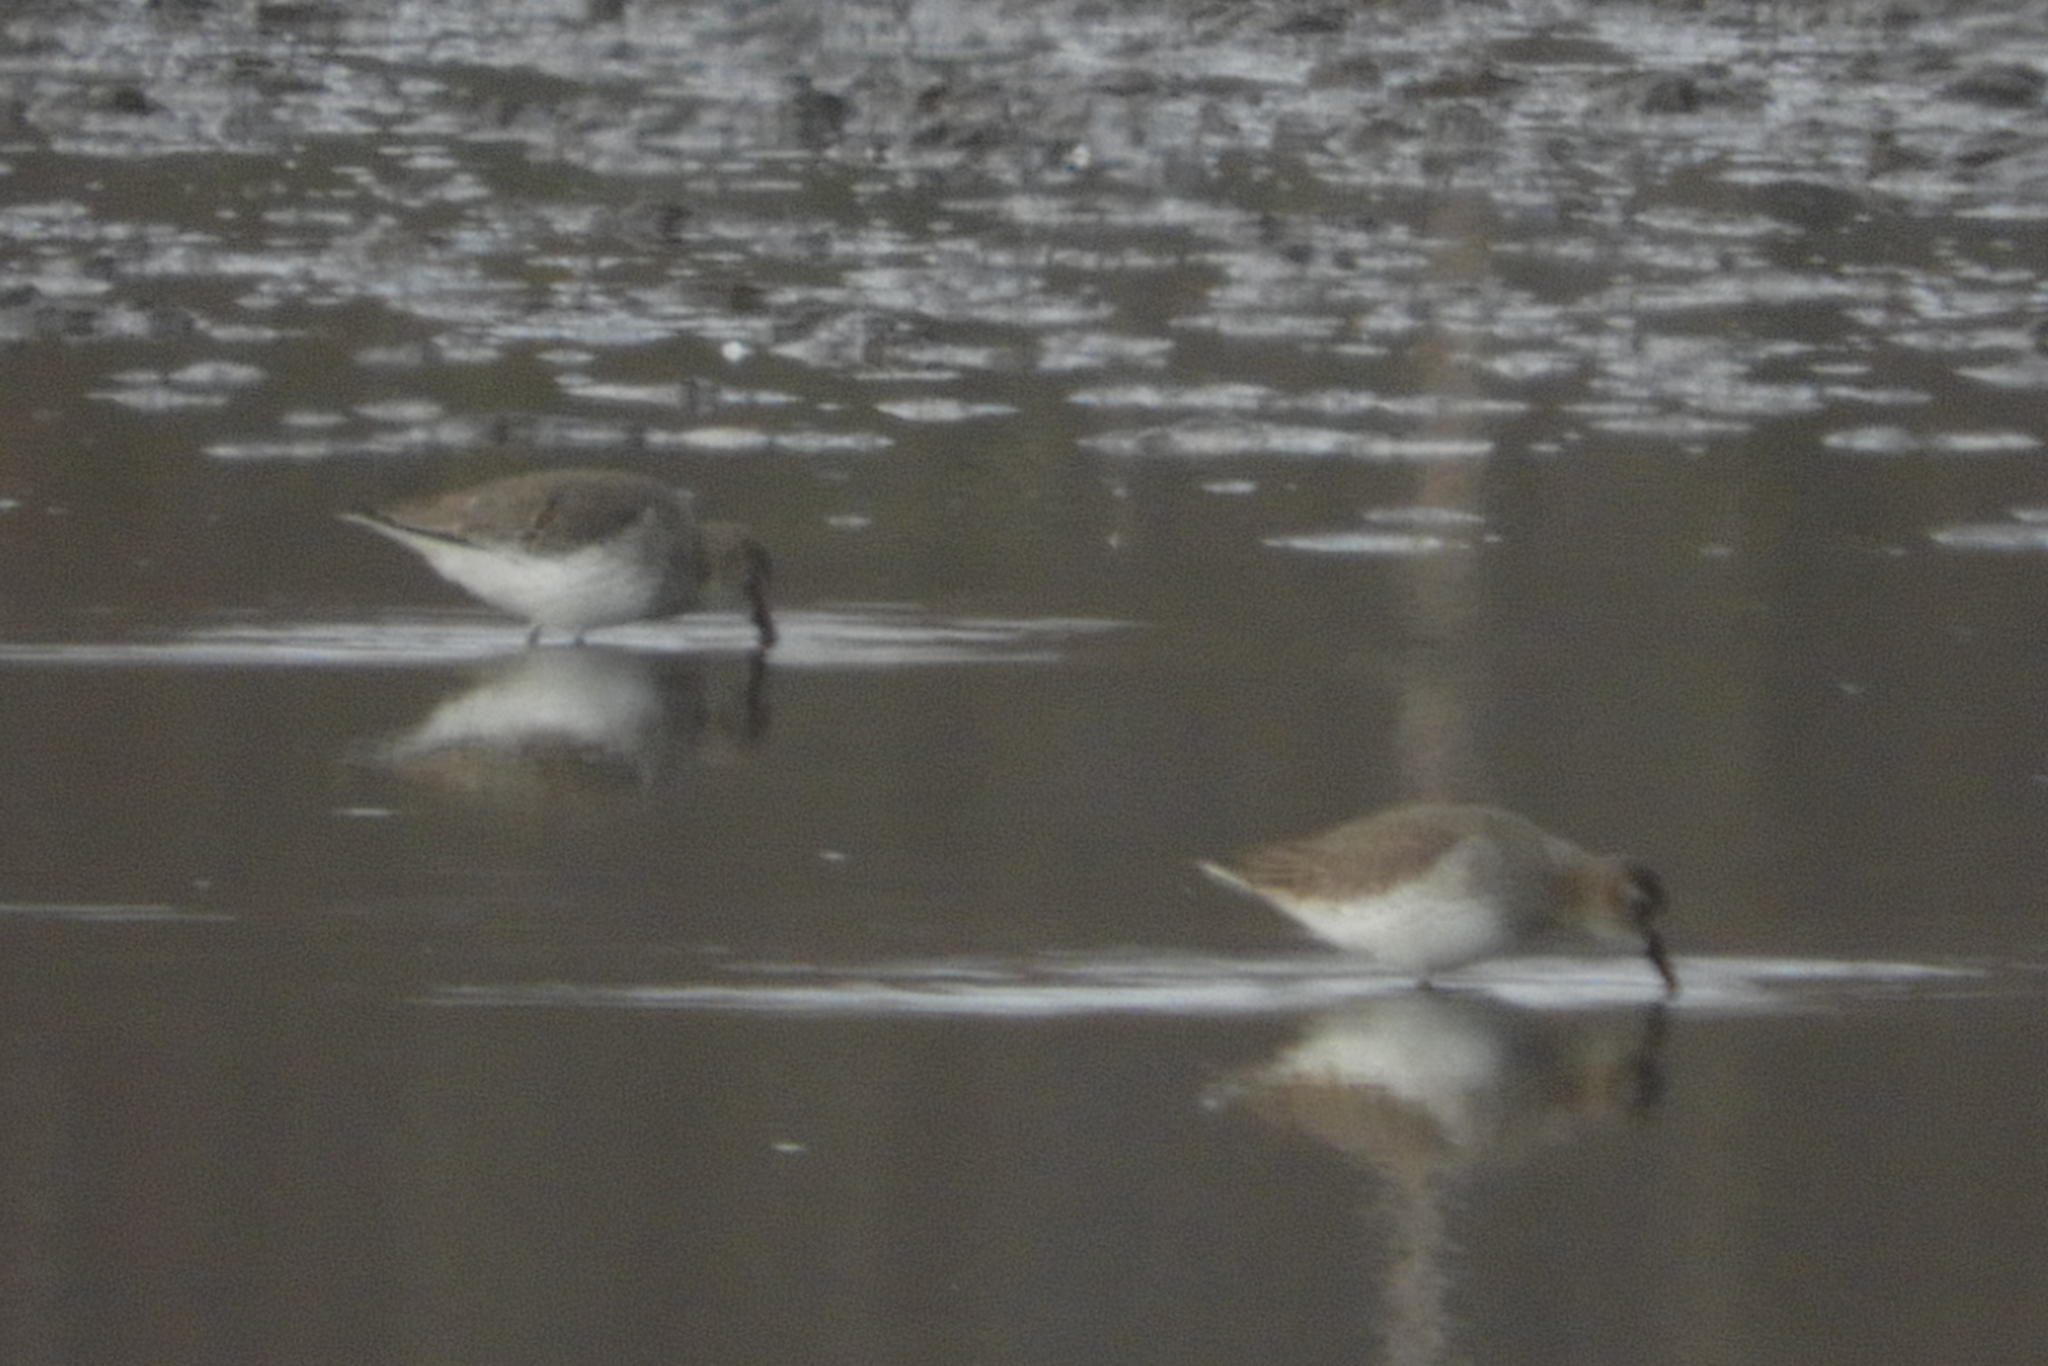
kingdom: Animalia
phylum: Chordata
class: Aves
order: Charadriiformes
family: Scolopacidae
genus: Calidris
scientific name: Calidris alpina
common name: Dunlin
